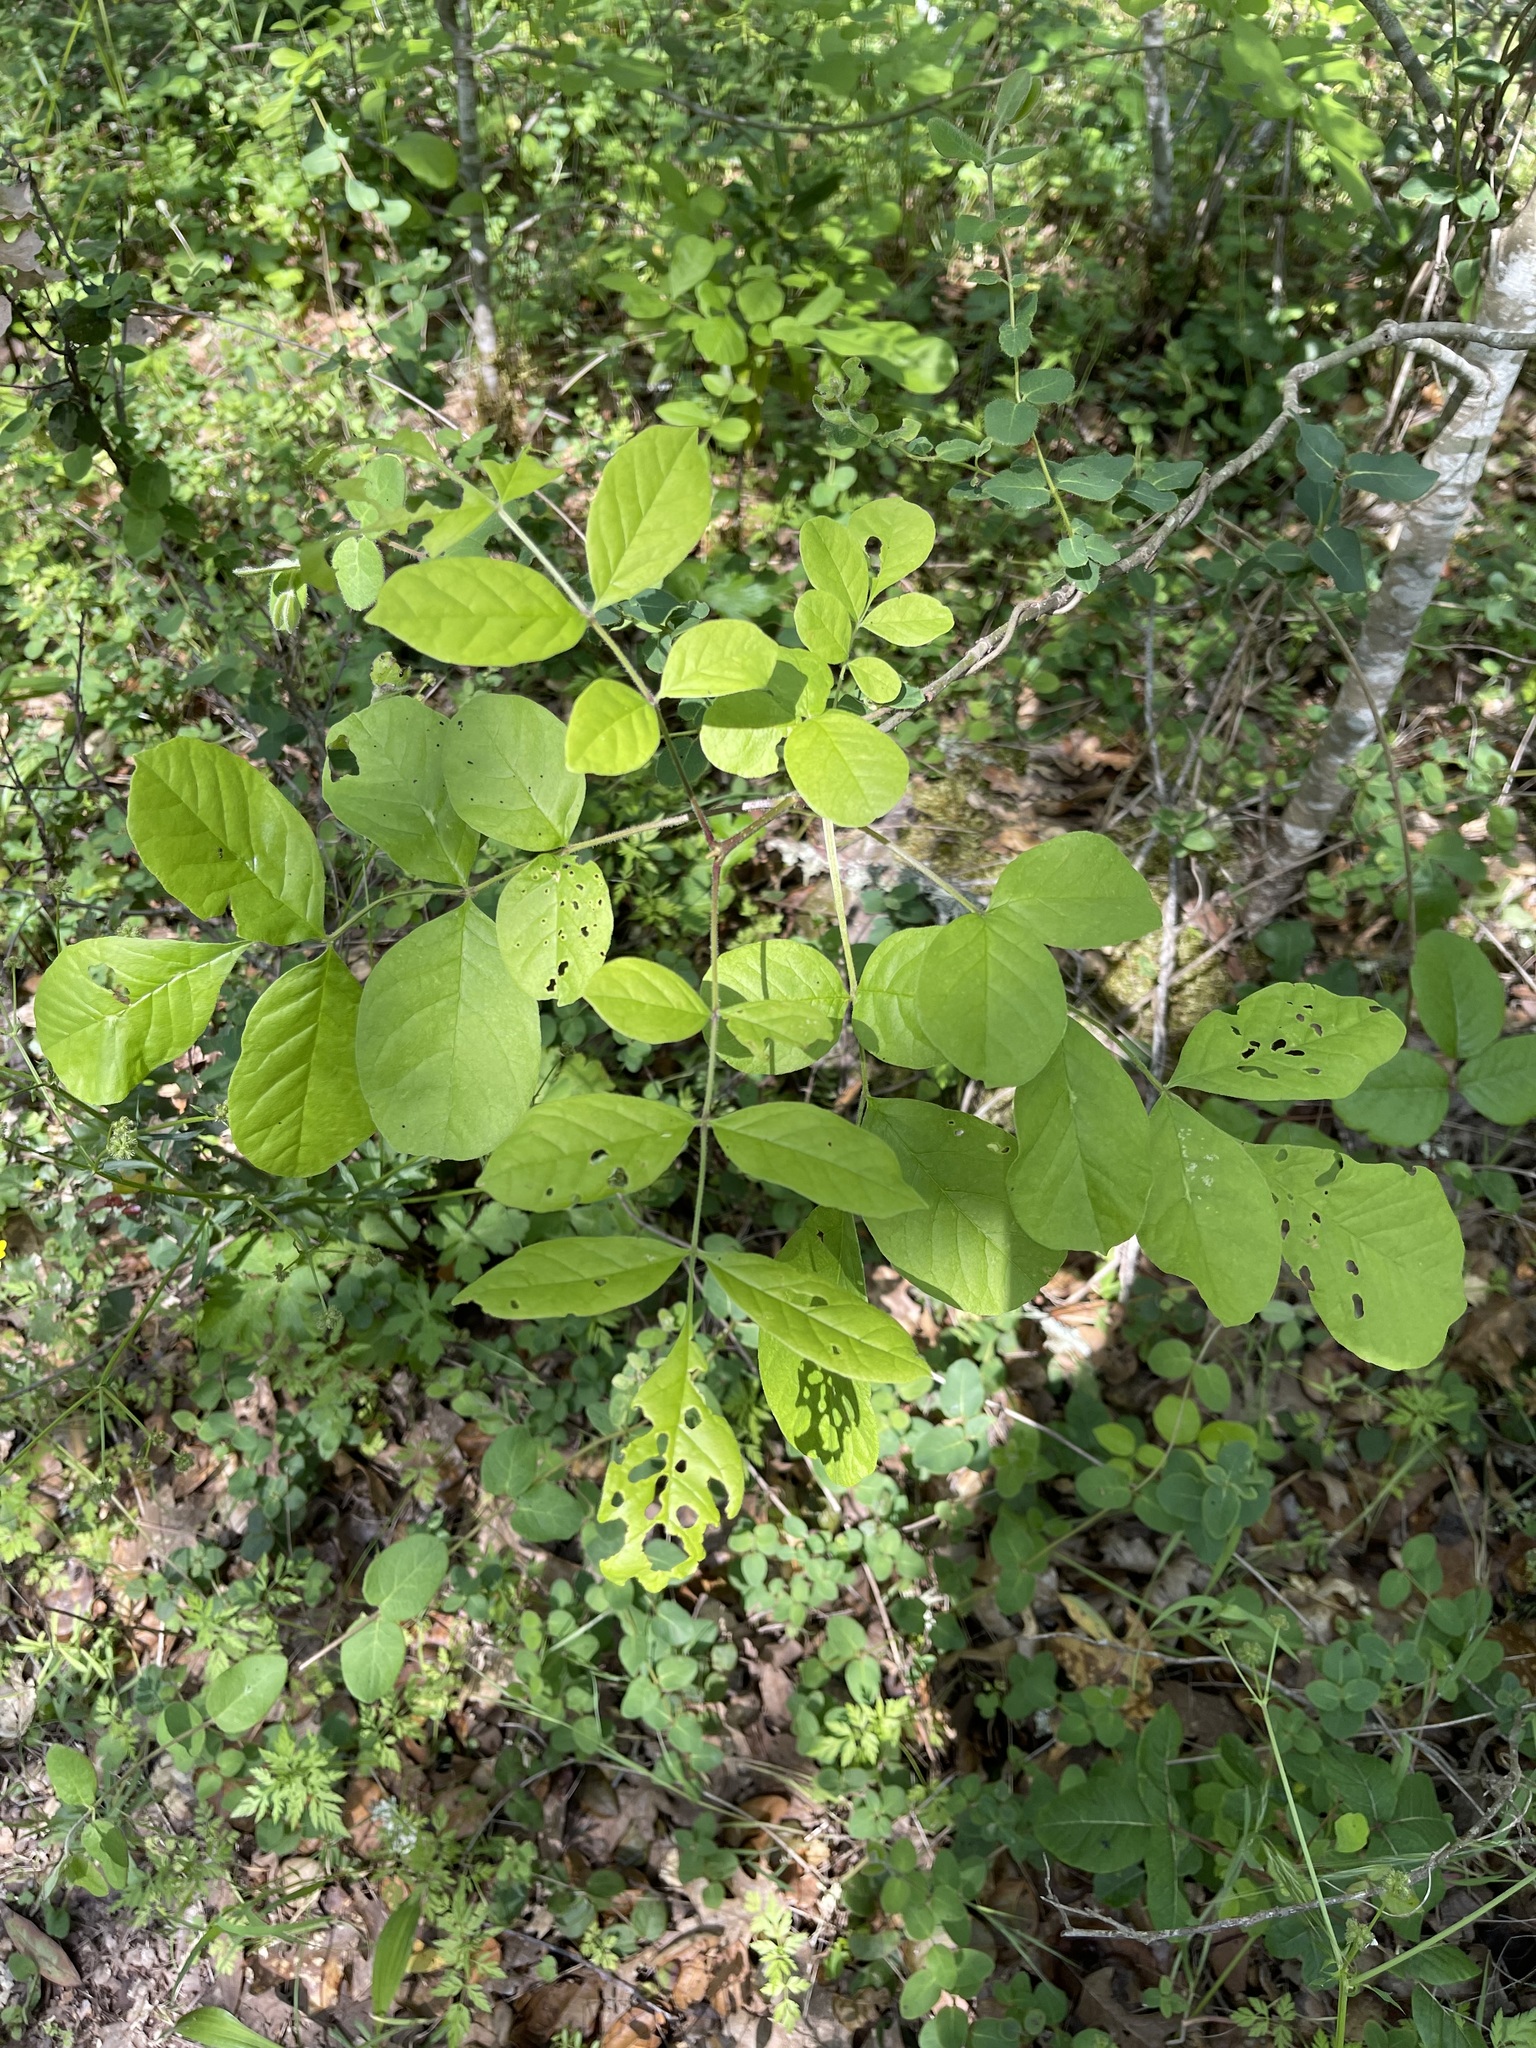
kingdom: Plantae
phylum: Tracheophyta
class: Magnoliopsida
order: Lamiales
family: Oleaceae
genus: Fraxinus
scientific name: Fraxinus latifolia
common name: Oregon ash
